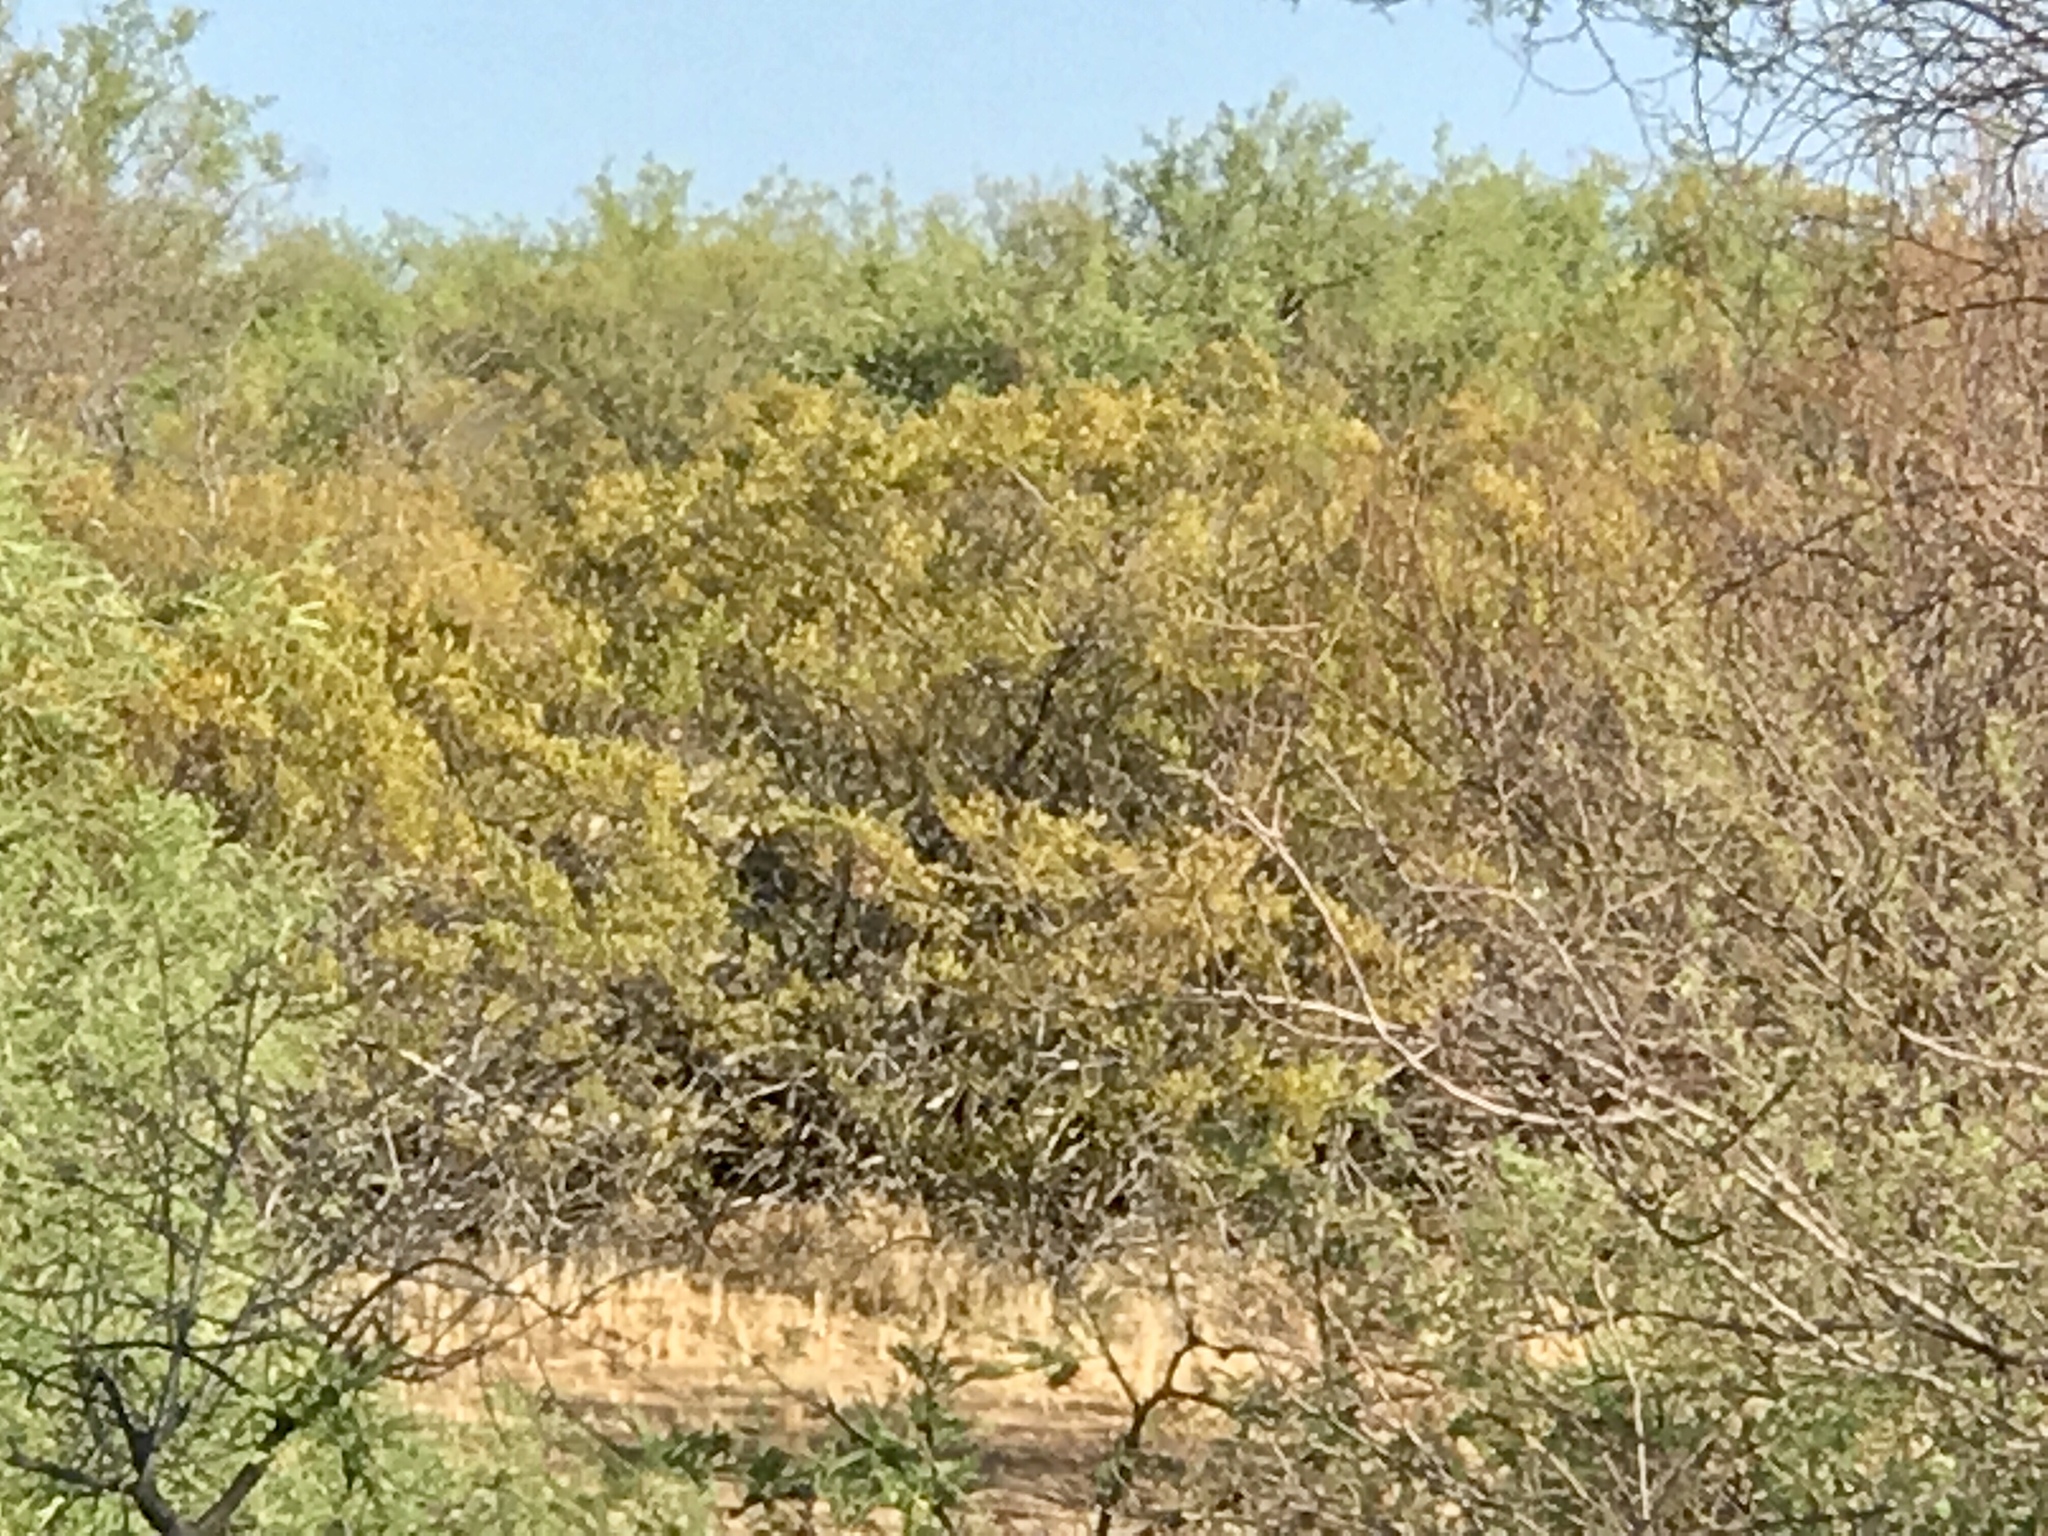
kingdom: Plantae
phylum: Tracheophyta
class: Magnoliopsida
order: Zygophyllales
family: Zygophyllaceae
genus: Larrea
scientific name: Larrea tridentata
